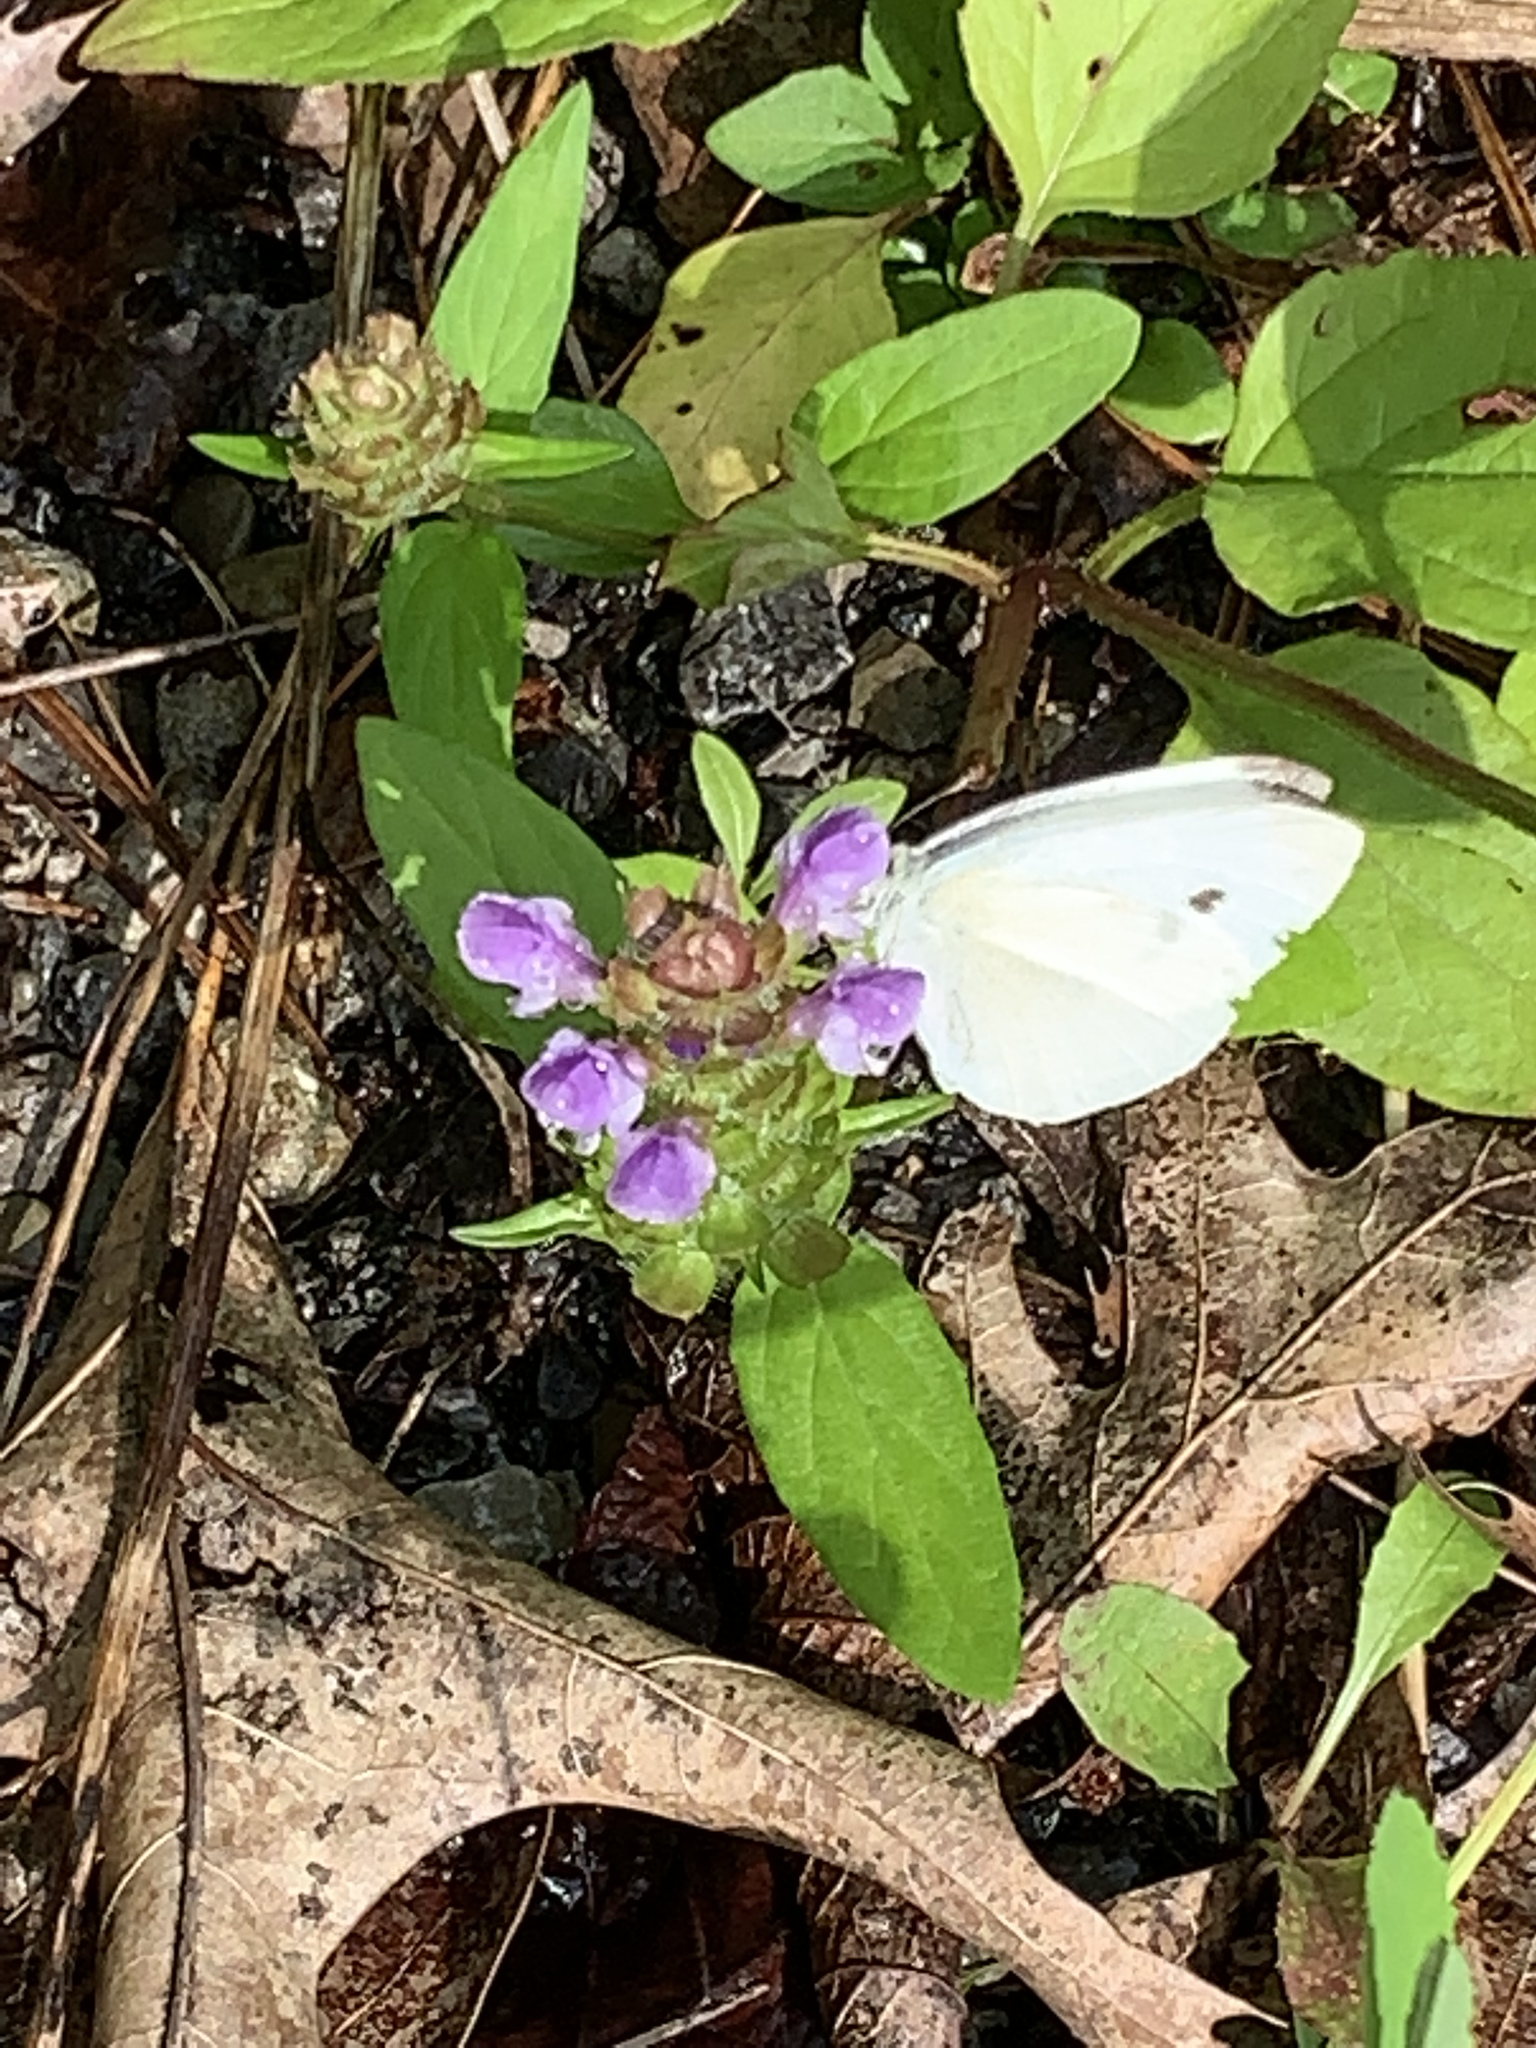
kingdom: Animalia
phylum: Arthropoda
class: Insecta
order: Lepidoptera
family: Pieridae
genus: Pieris
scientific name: Pieris rapae
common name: Small white
